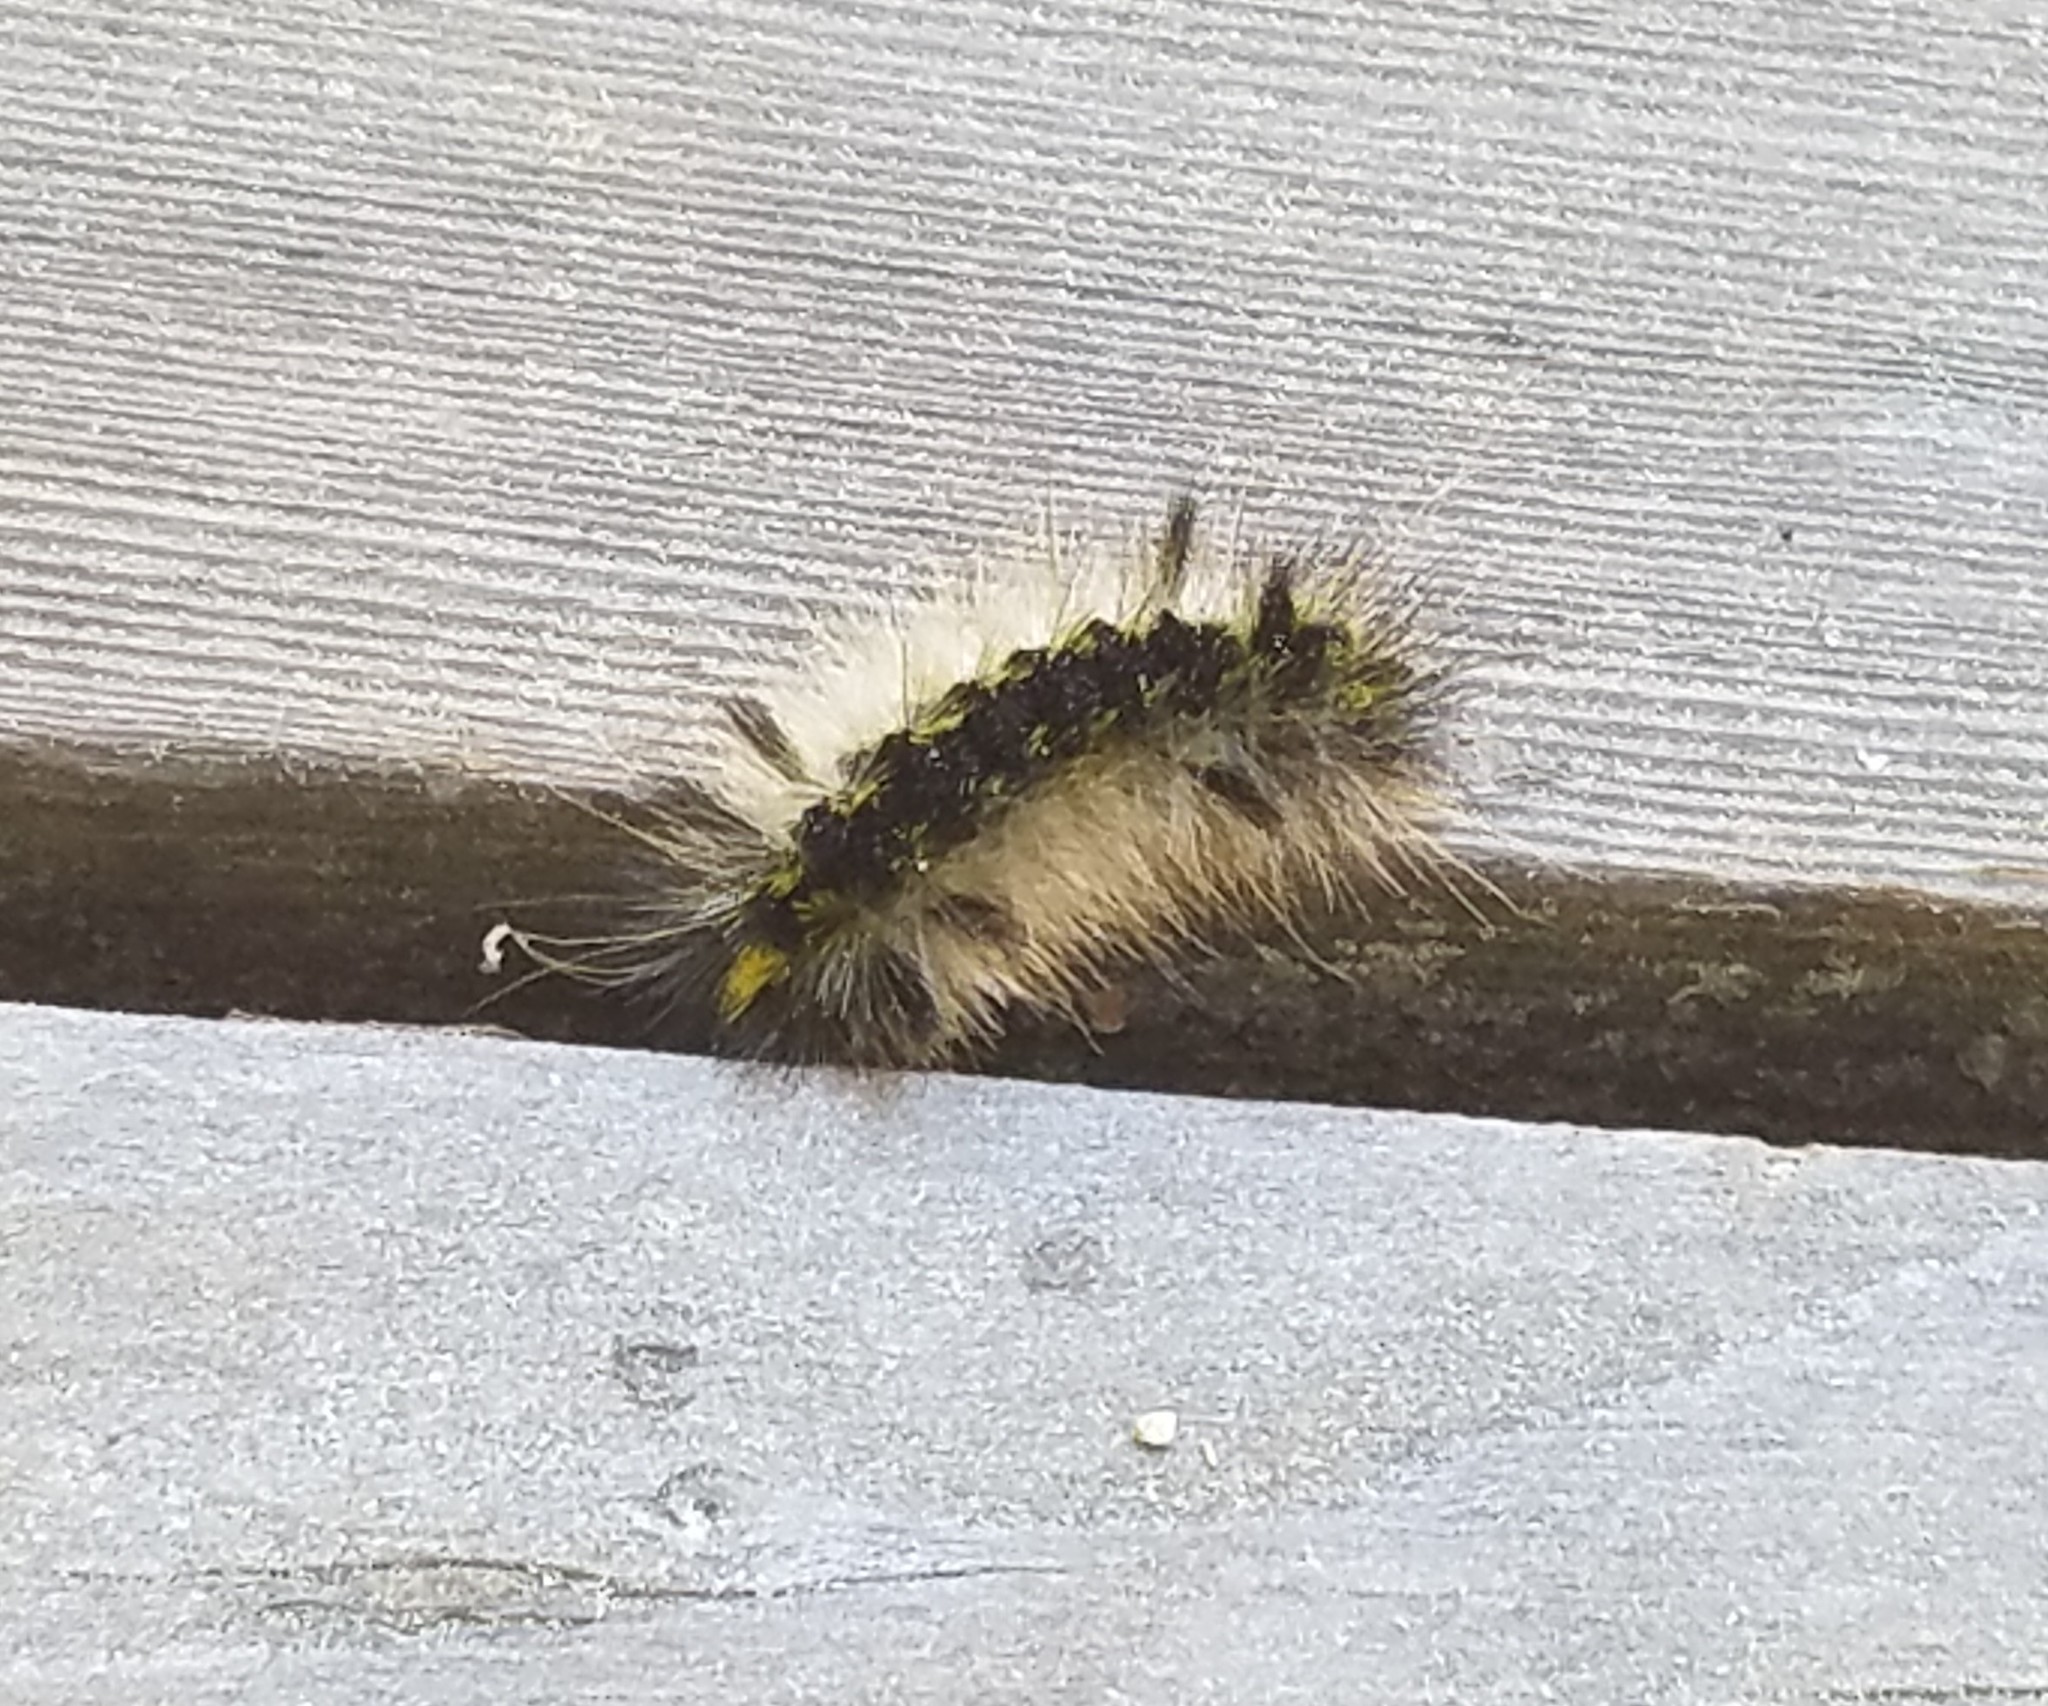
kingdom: Animalia
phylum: Arthropoda
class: Insecta
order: Lepidoptera
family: Erebidae
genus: Lophocampa
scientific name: Lophocampa argentata
